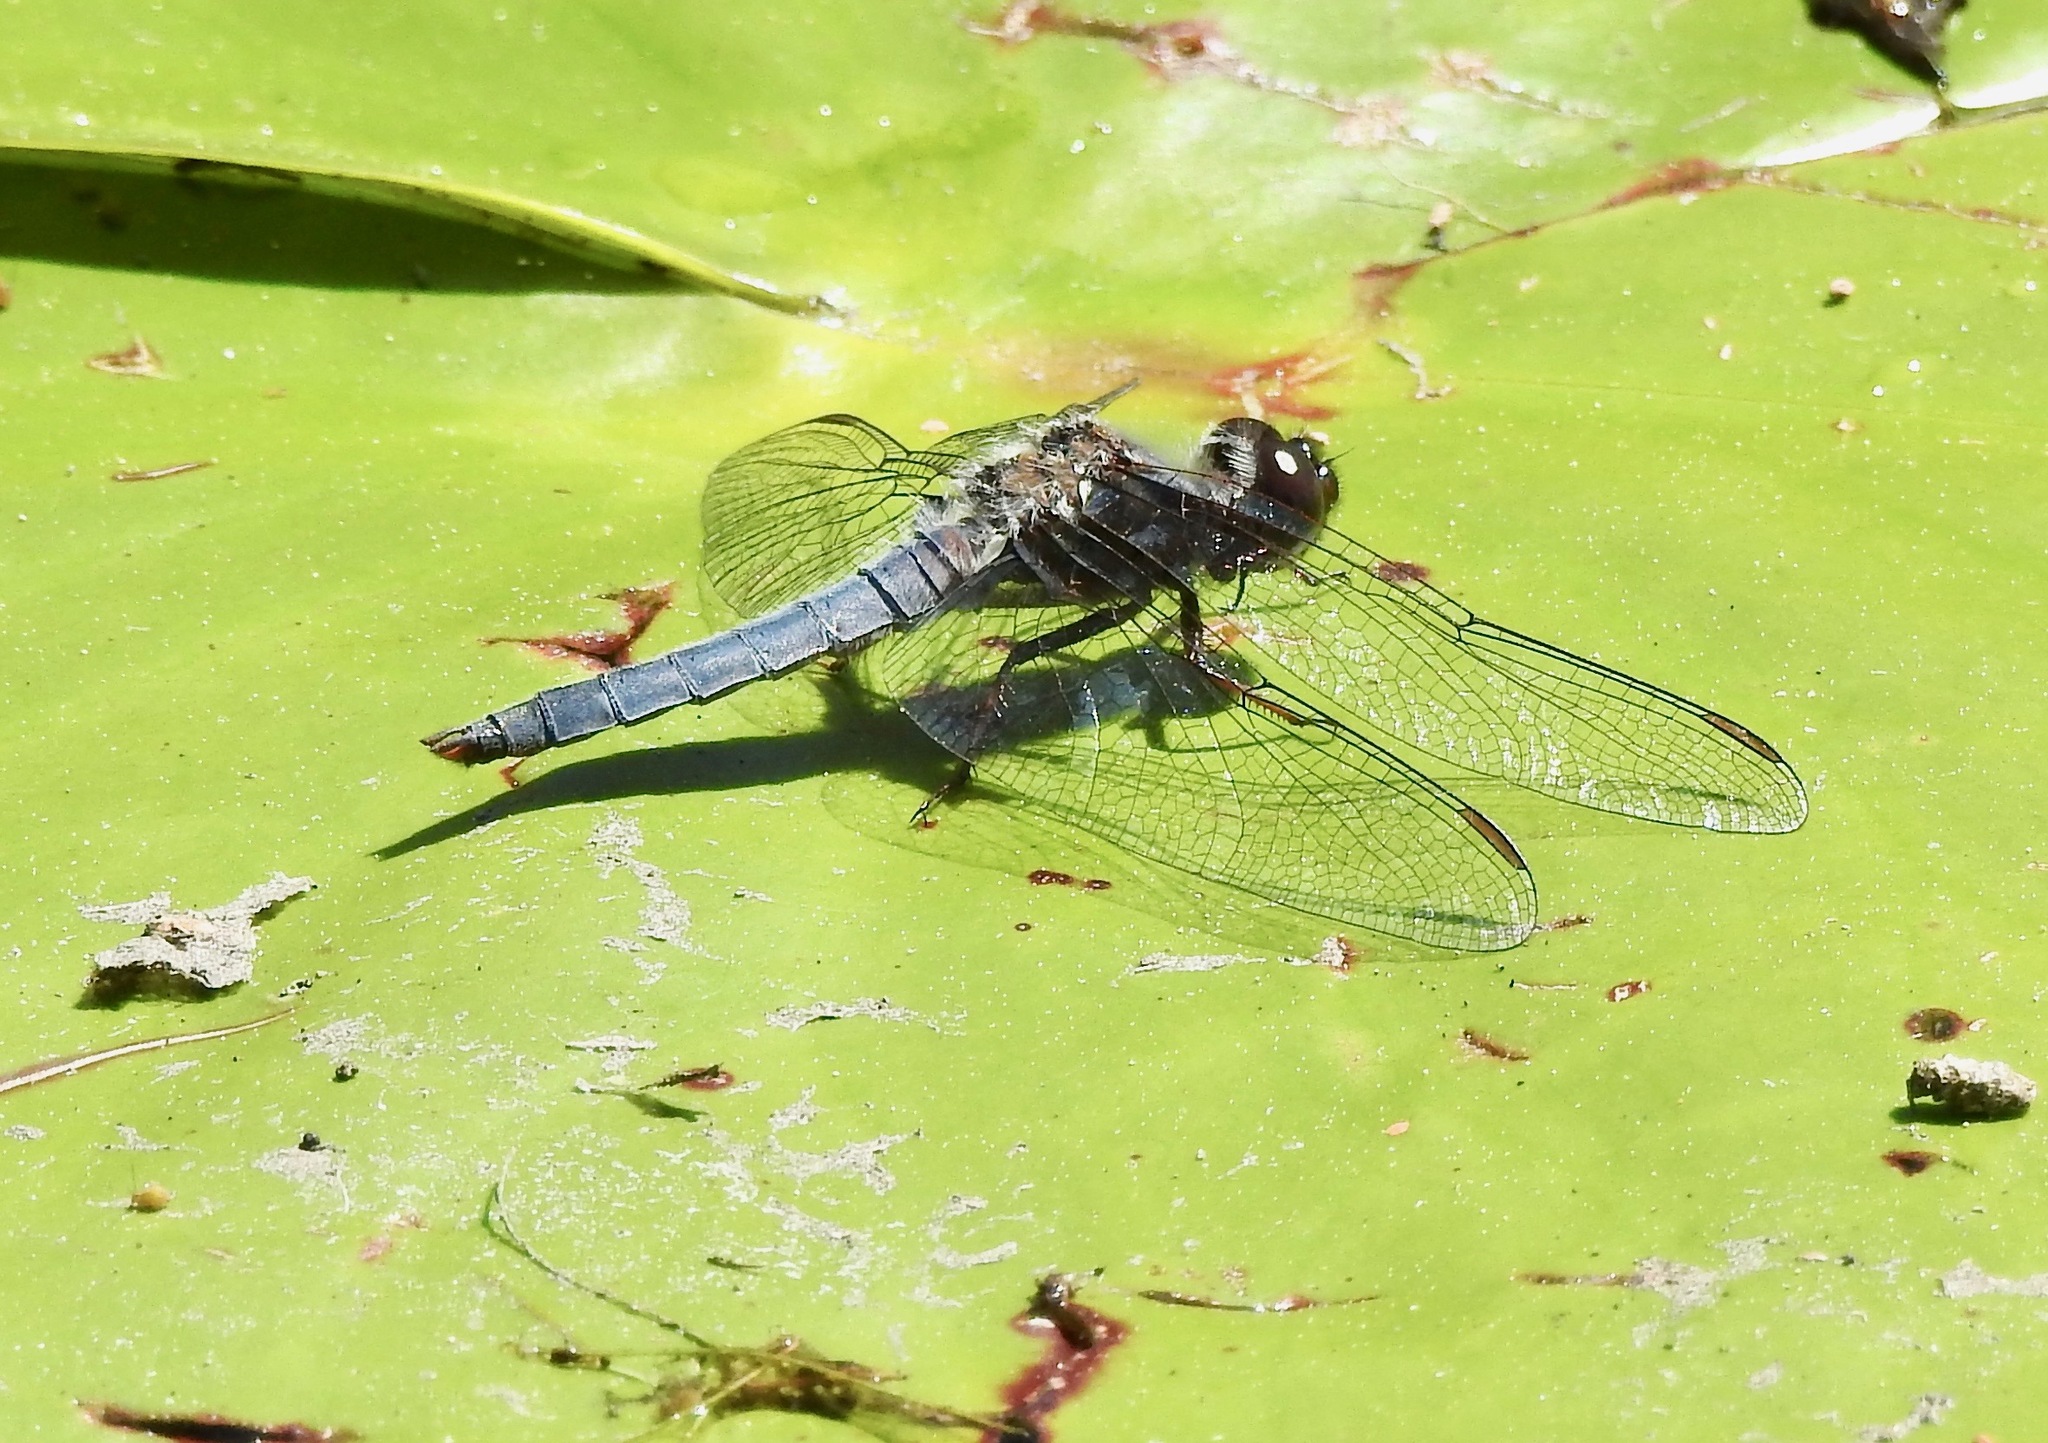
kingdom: Animalia
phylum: Arthropoda
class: Insecta
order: Odonata
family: Libellulidae
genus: Ladona
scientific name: Ladona deplanata
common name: Blue corporal
